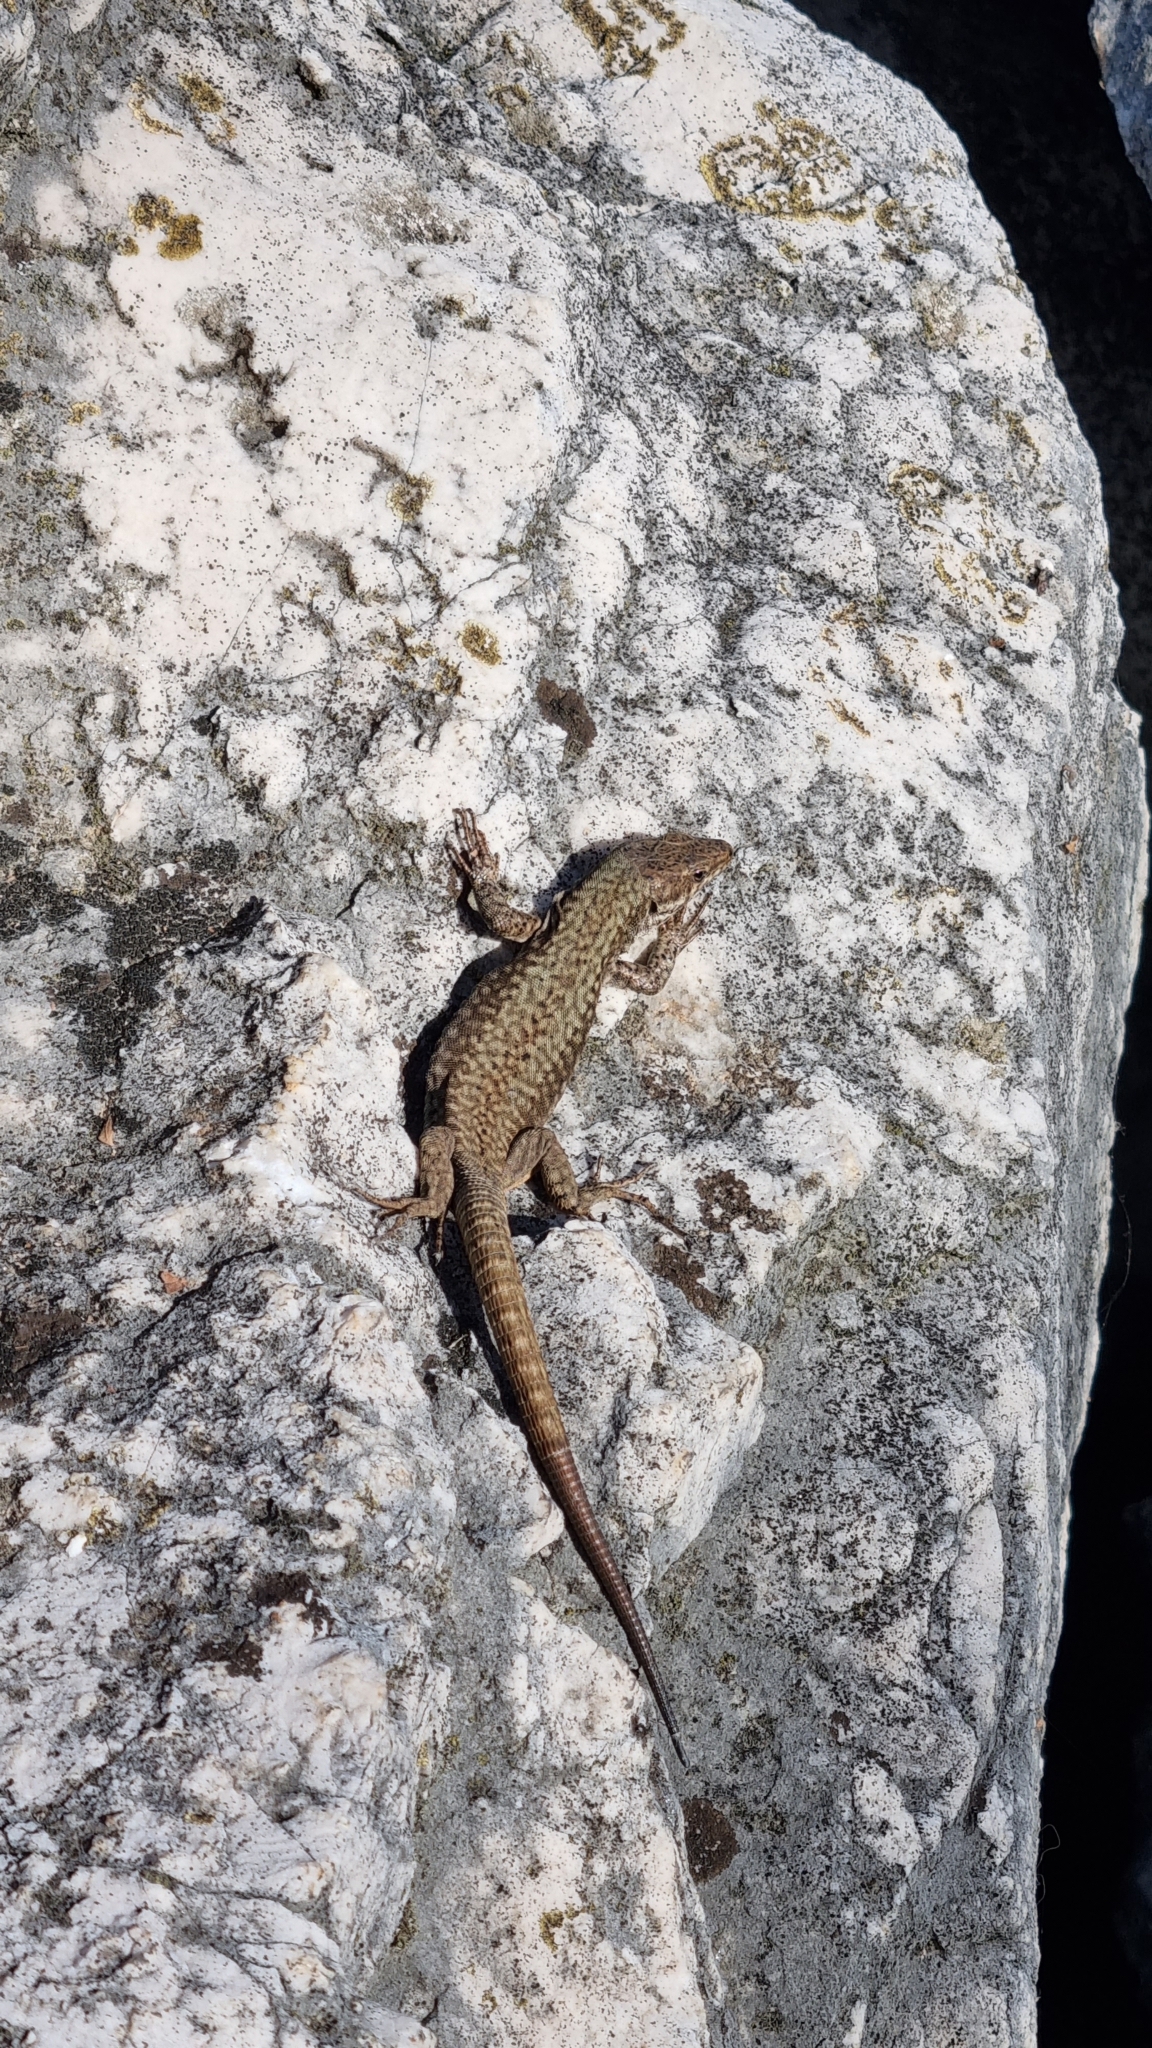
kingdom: Animalia
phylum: Chordata
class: Squamata
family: Lacertidae
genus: Podarcis
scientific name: Podarcis muralis
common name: Common wall lizard
